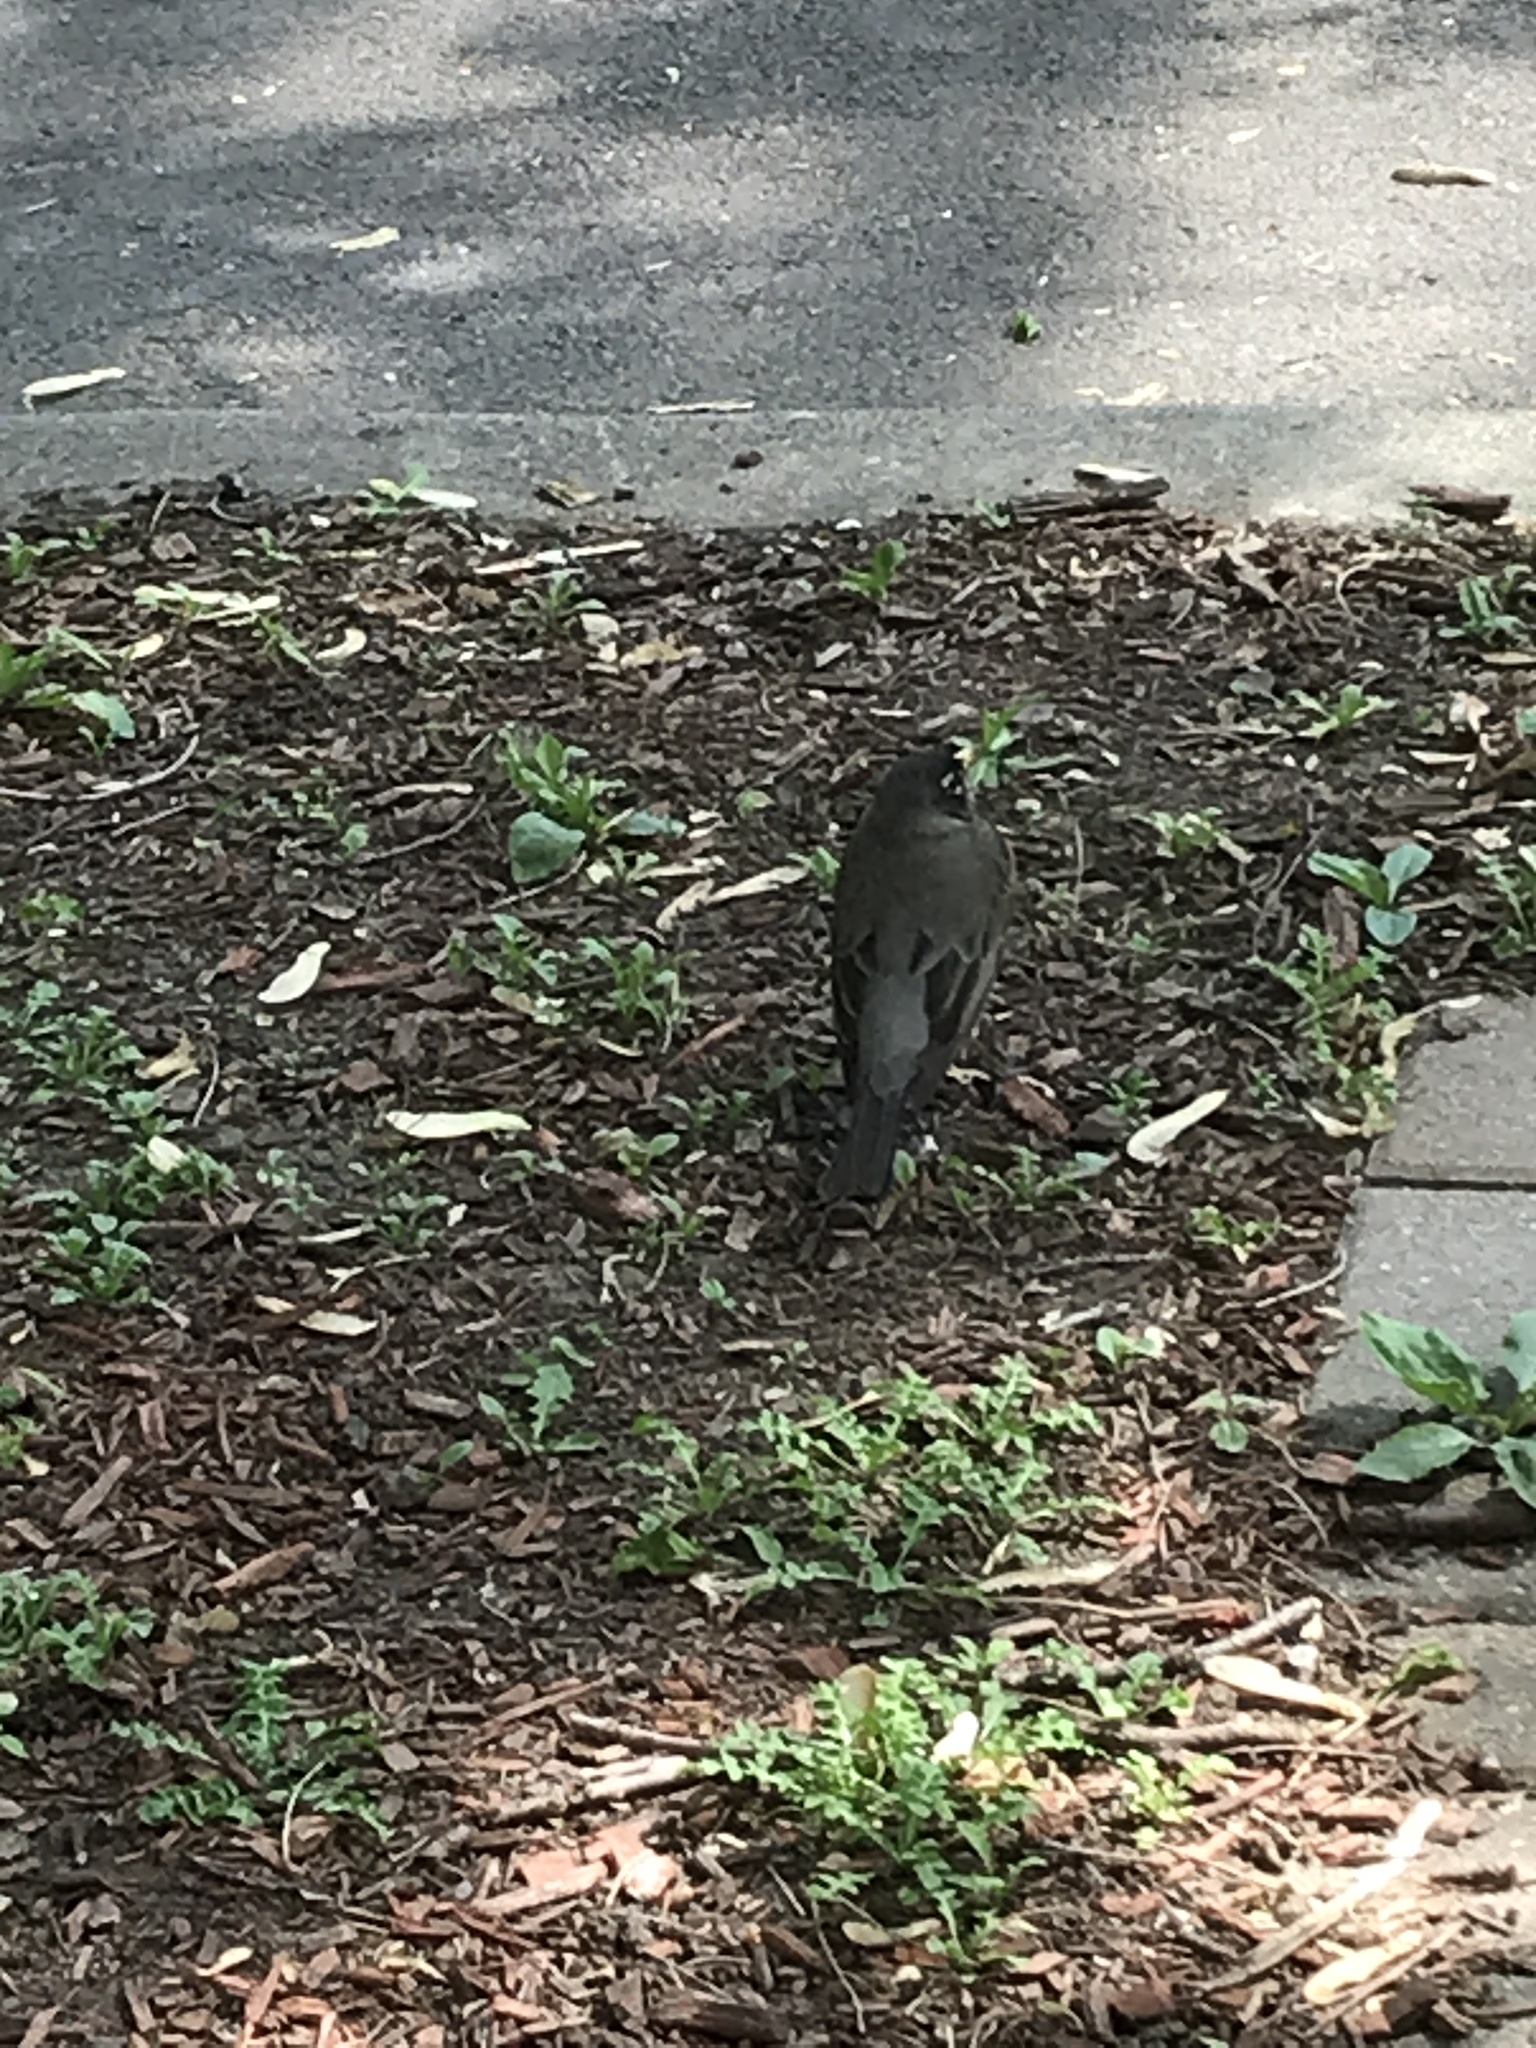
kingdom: Animalia
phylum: Chordata
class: Aves
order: Passeriformes
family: Turdidae
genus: Turdus
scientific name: Turdus migratorius
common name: American robin
